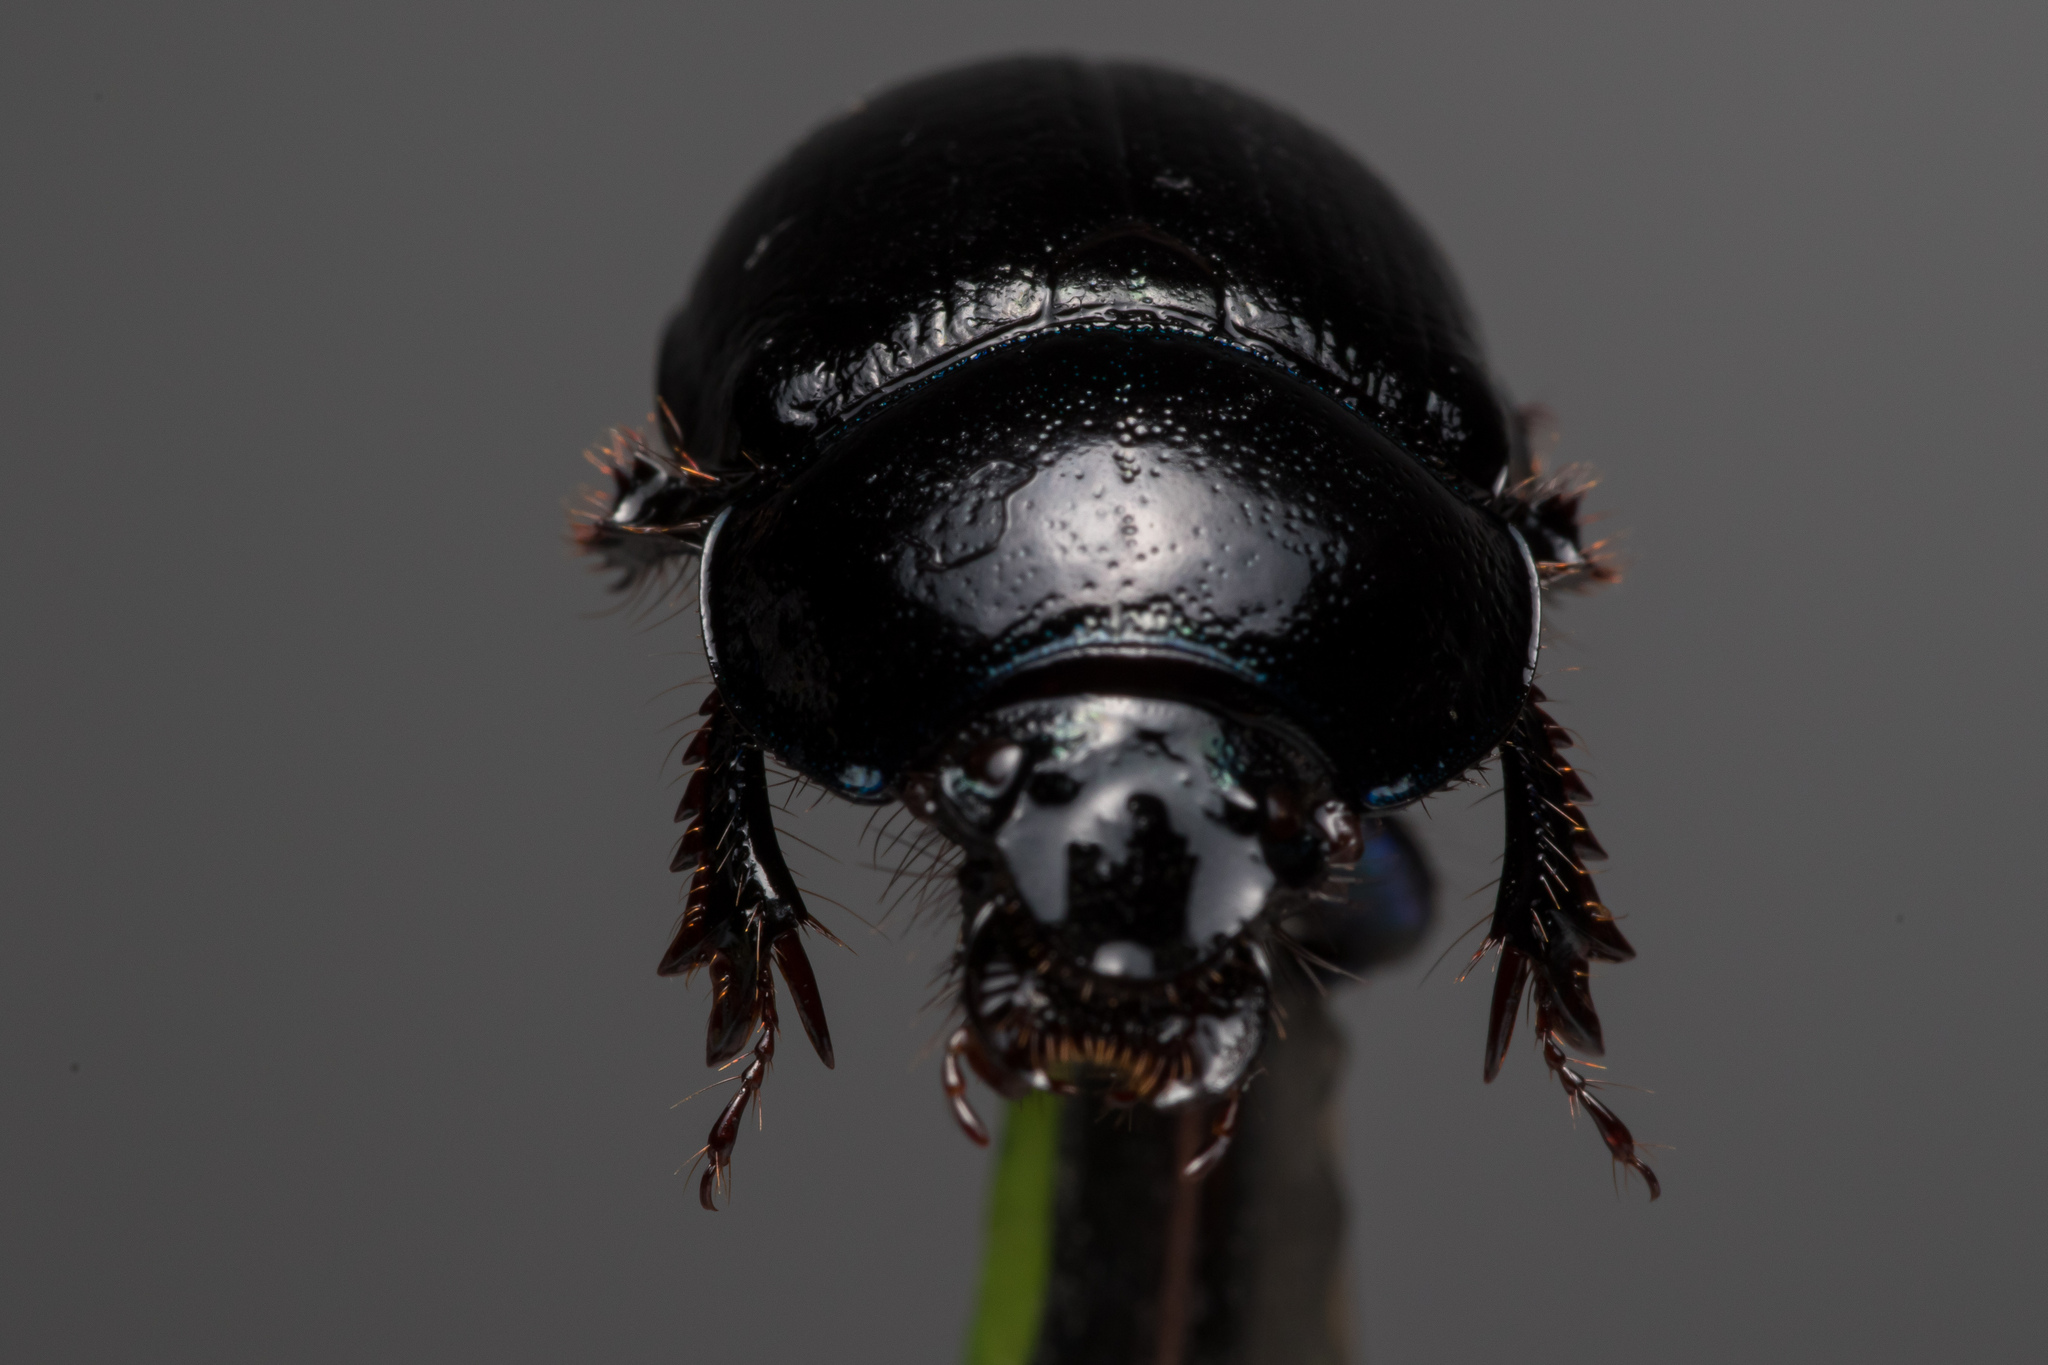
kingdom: Animalia
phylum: Arthropoda
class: Insecta
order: Coleoptera
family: Geotrupidae
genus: Anoplotrupes
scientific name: Anoplotrupes stercorosus
